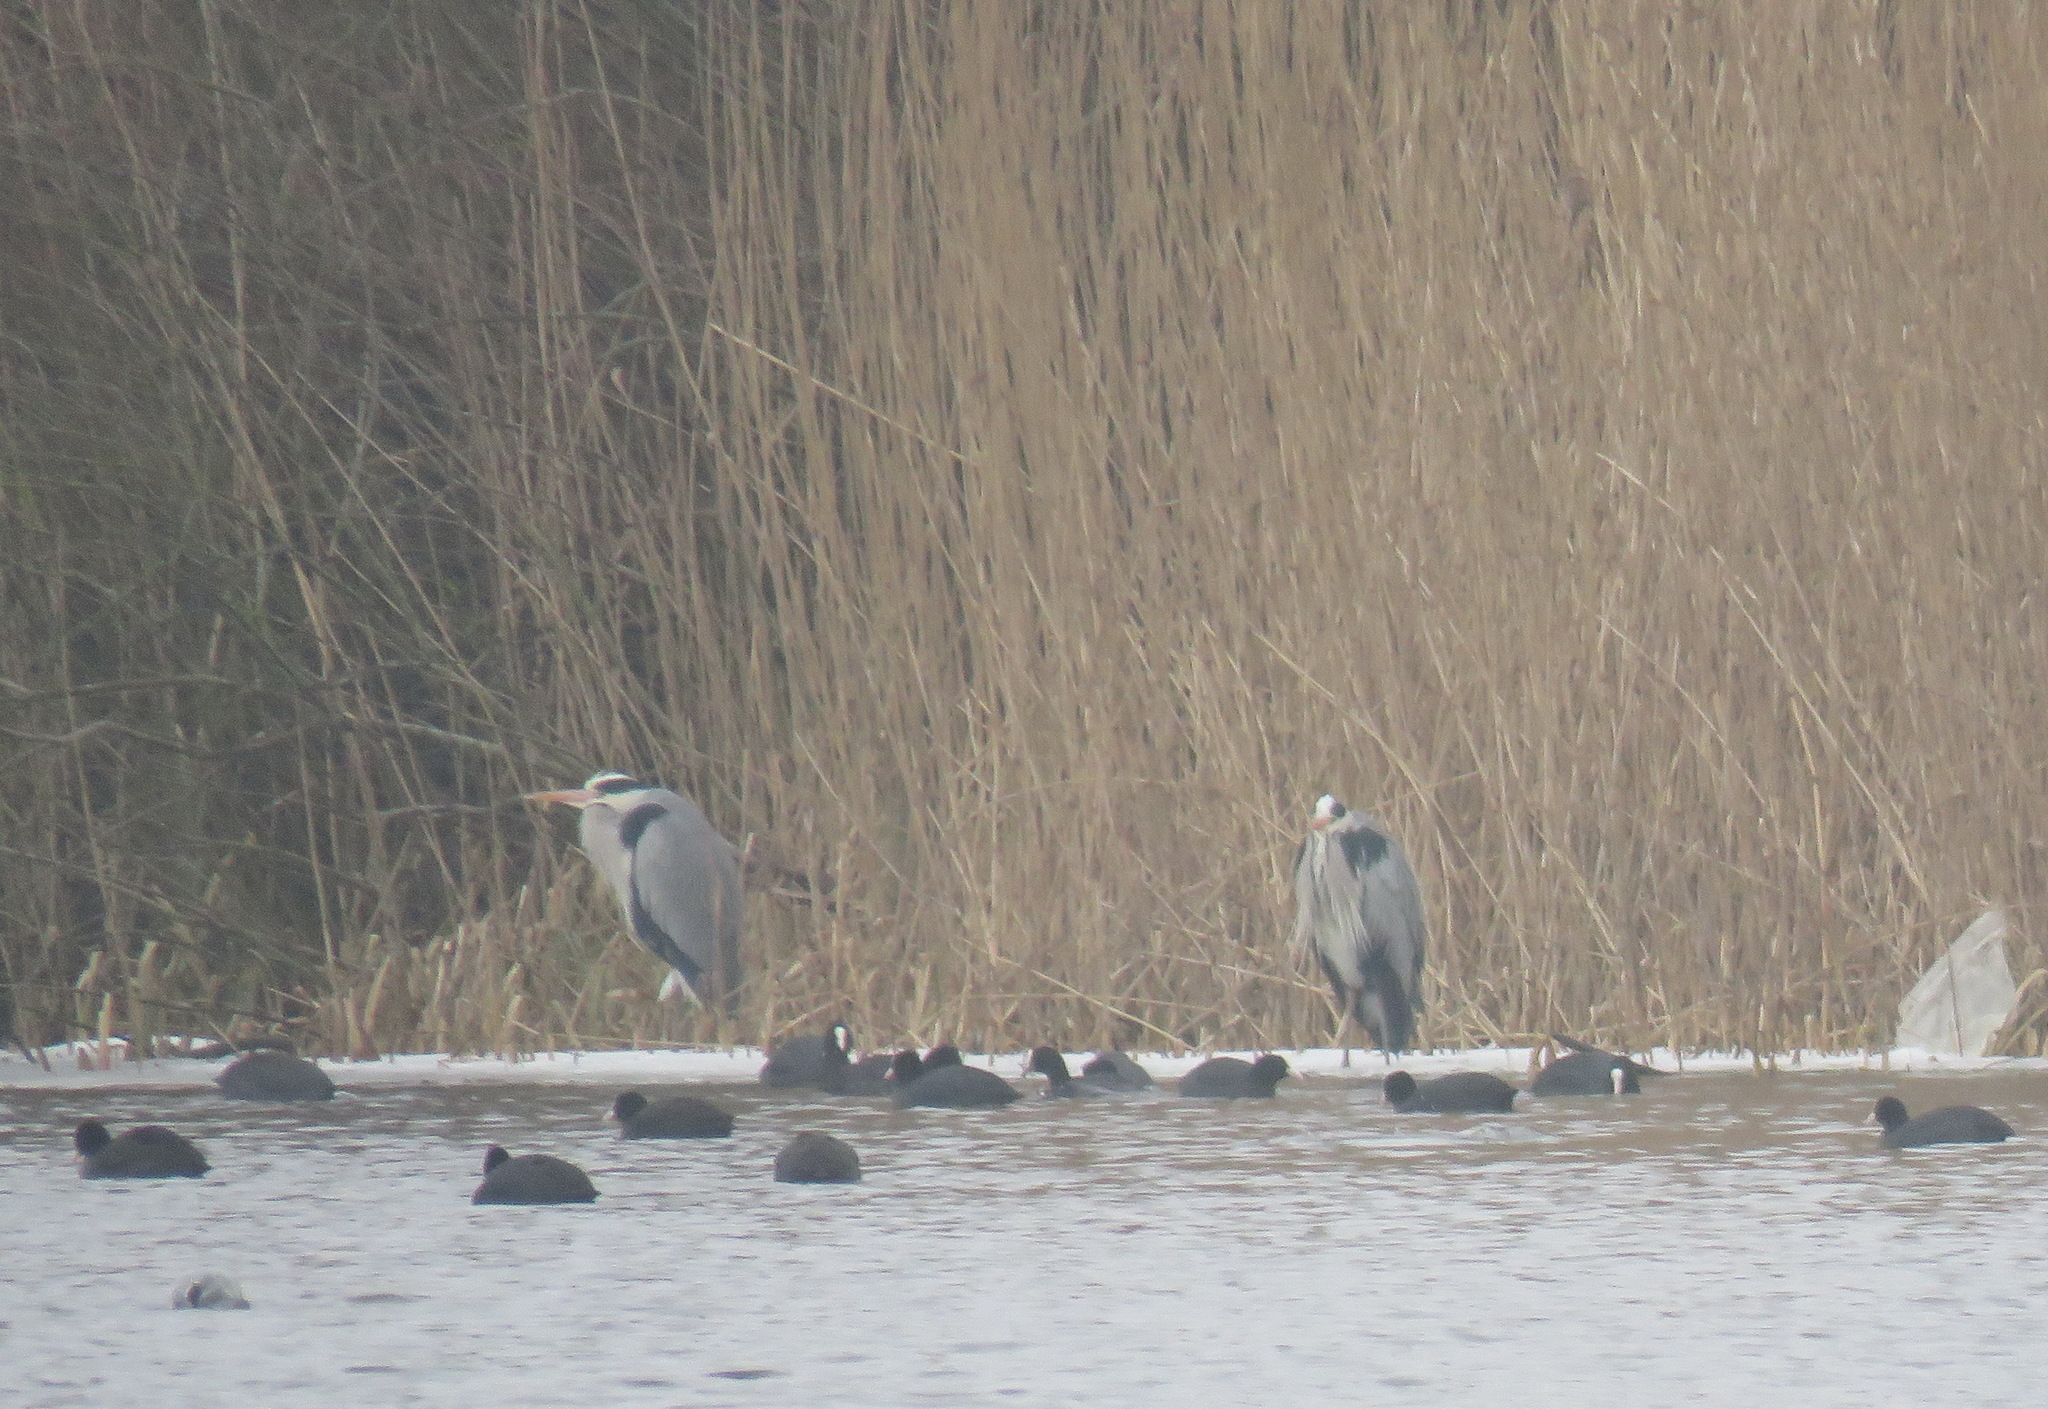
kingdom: Animalia
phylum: Chordata
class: Aves
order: Pelecaniformes
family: Ardeidae
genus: Ardea
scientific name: Ardea cinerea
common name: Grey heron
